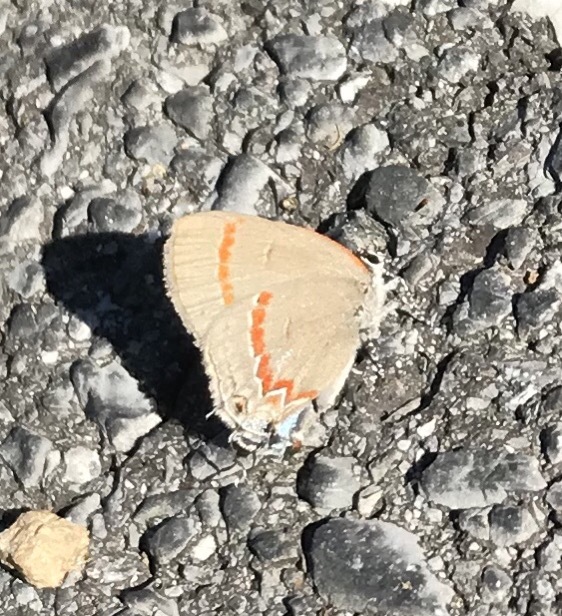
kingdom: Animalia
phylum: Arthropoda
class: Insecta
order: Lepidoptera
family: Lycaenidae
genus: Calycopis
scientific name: Calycopis cecrops
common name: Red-banded hairstreak
